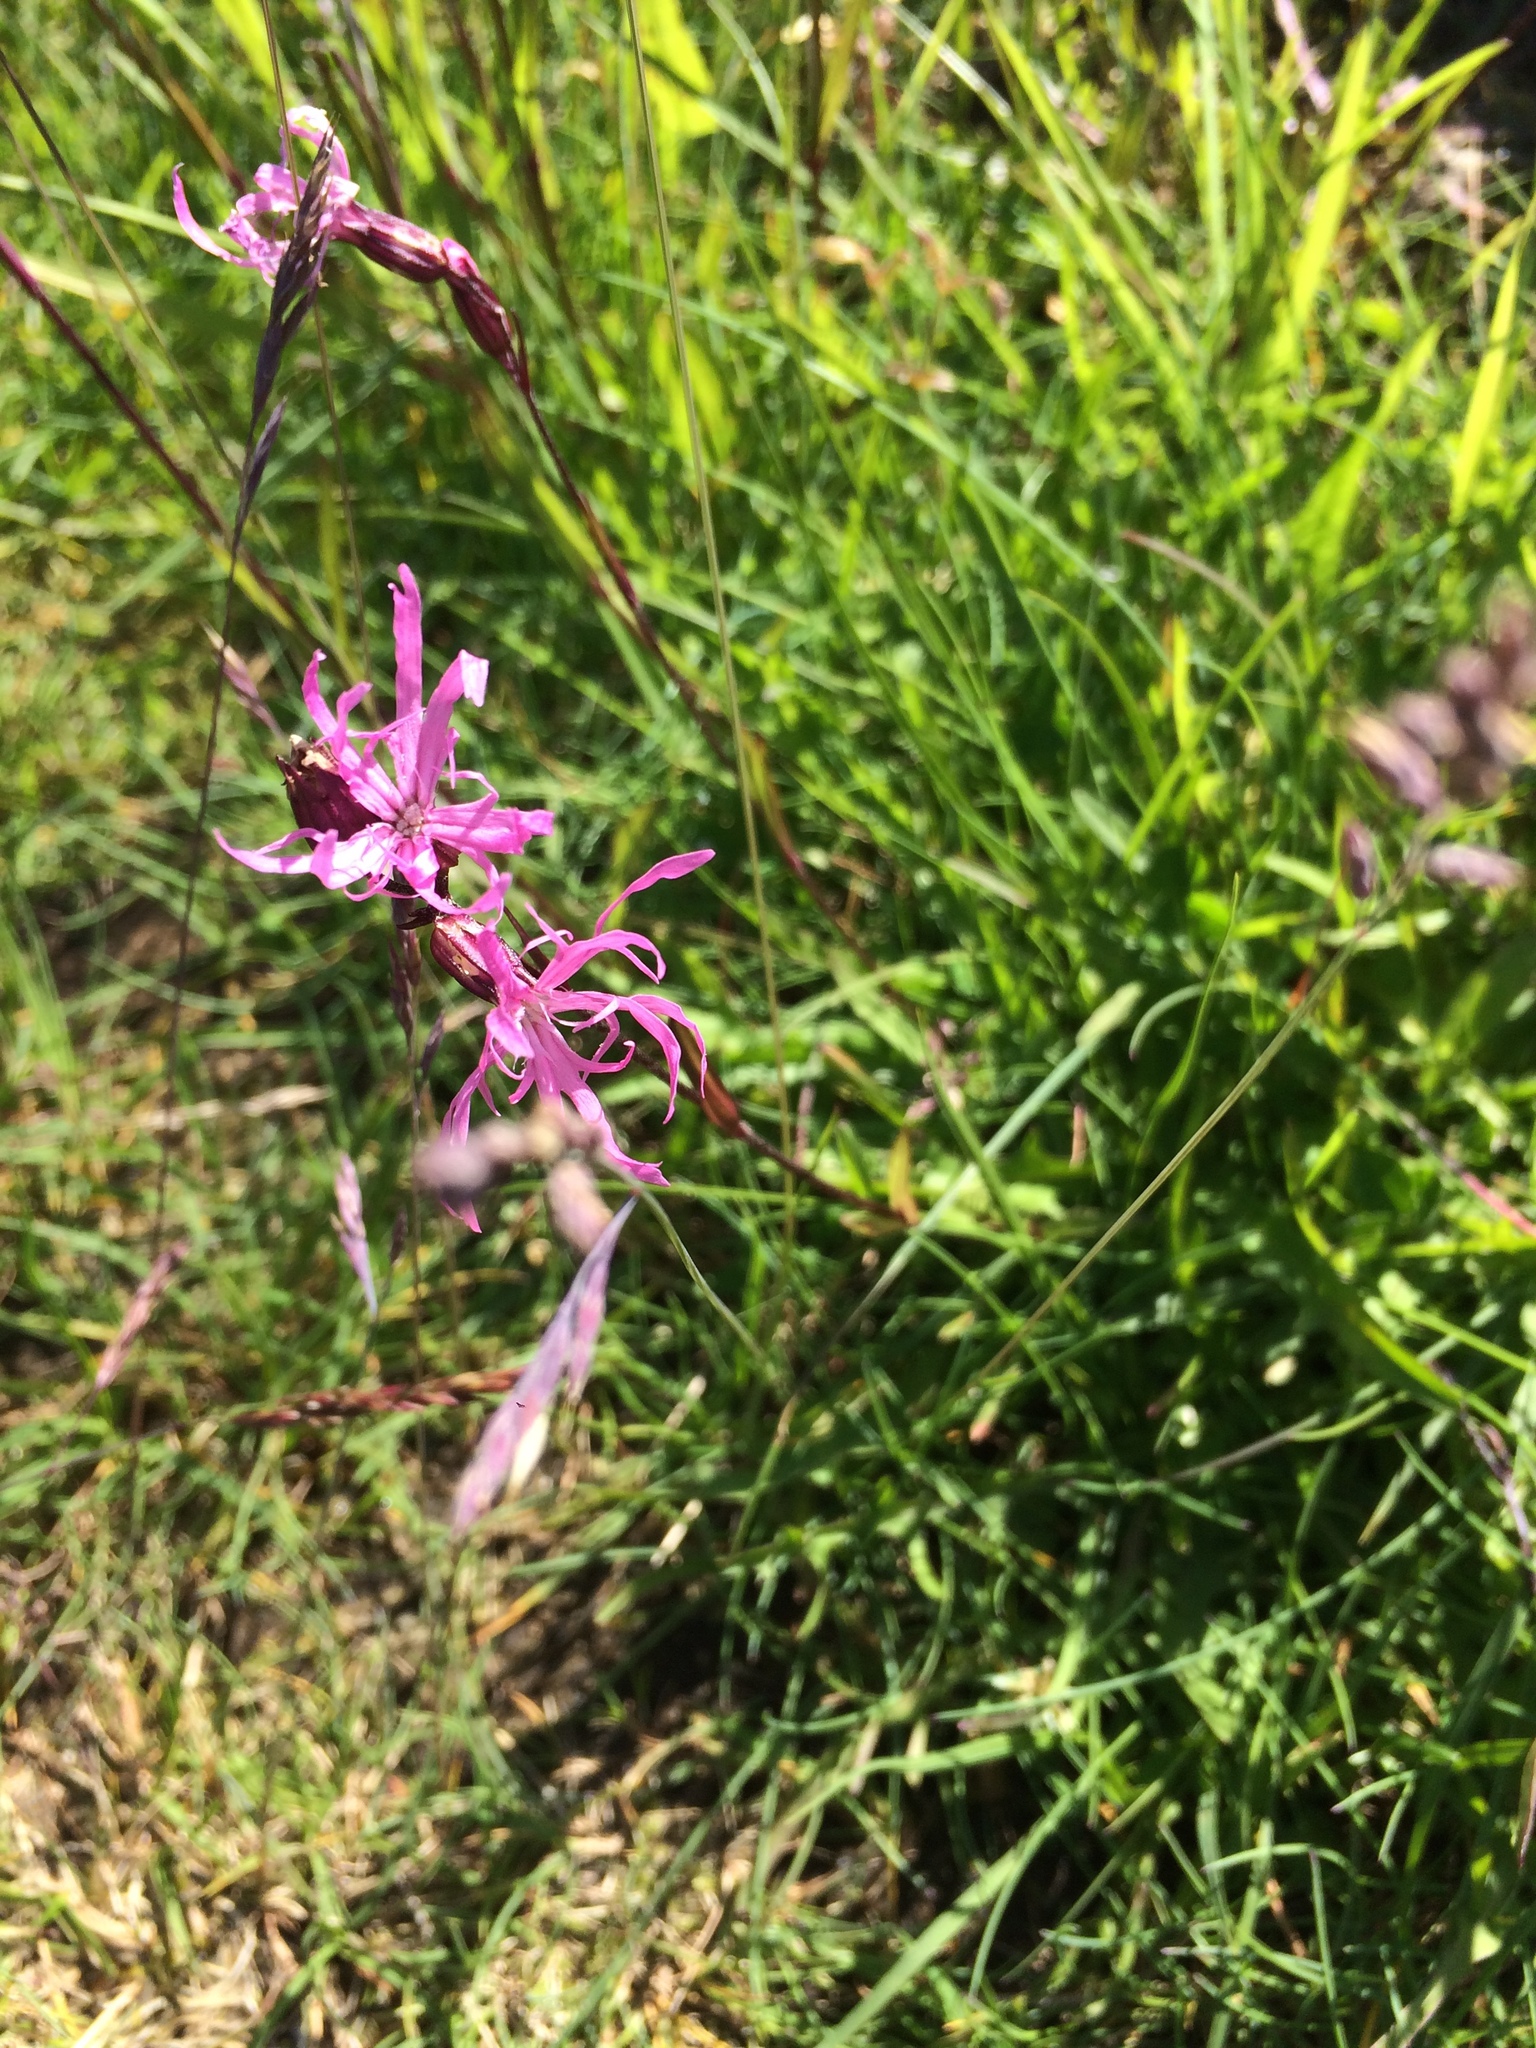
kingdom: Plantae
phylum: Tracheophyta
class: Magnoliopsida
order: Caryophyllales
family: Caryophyllaceae
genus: Silene
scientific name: Silene flos-cuculi
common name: Ragged-robin
